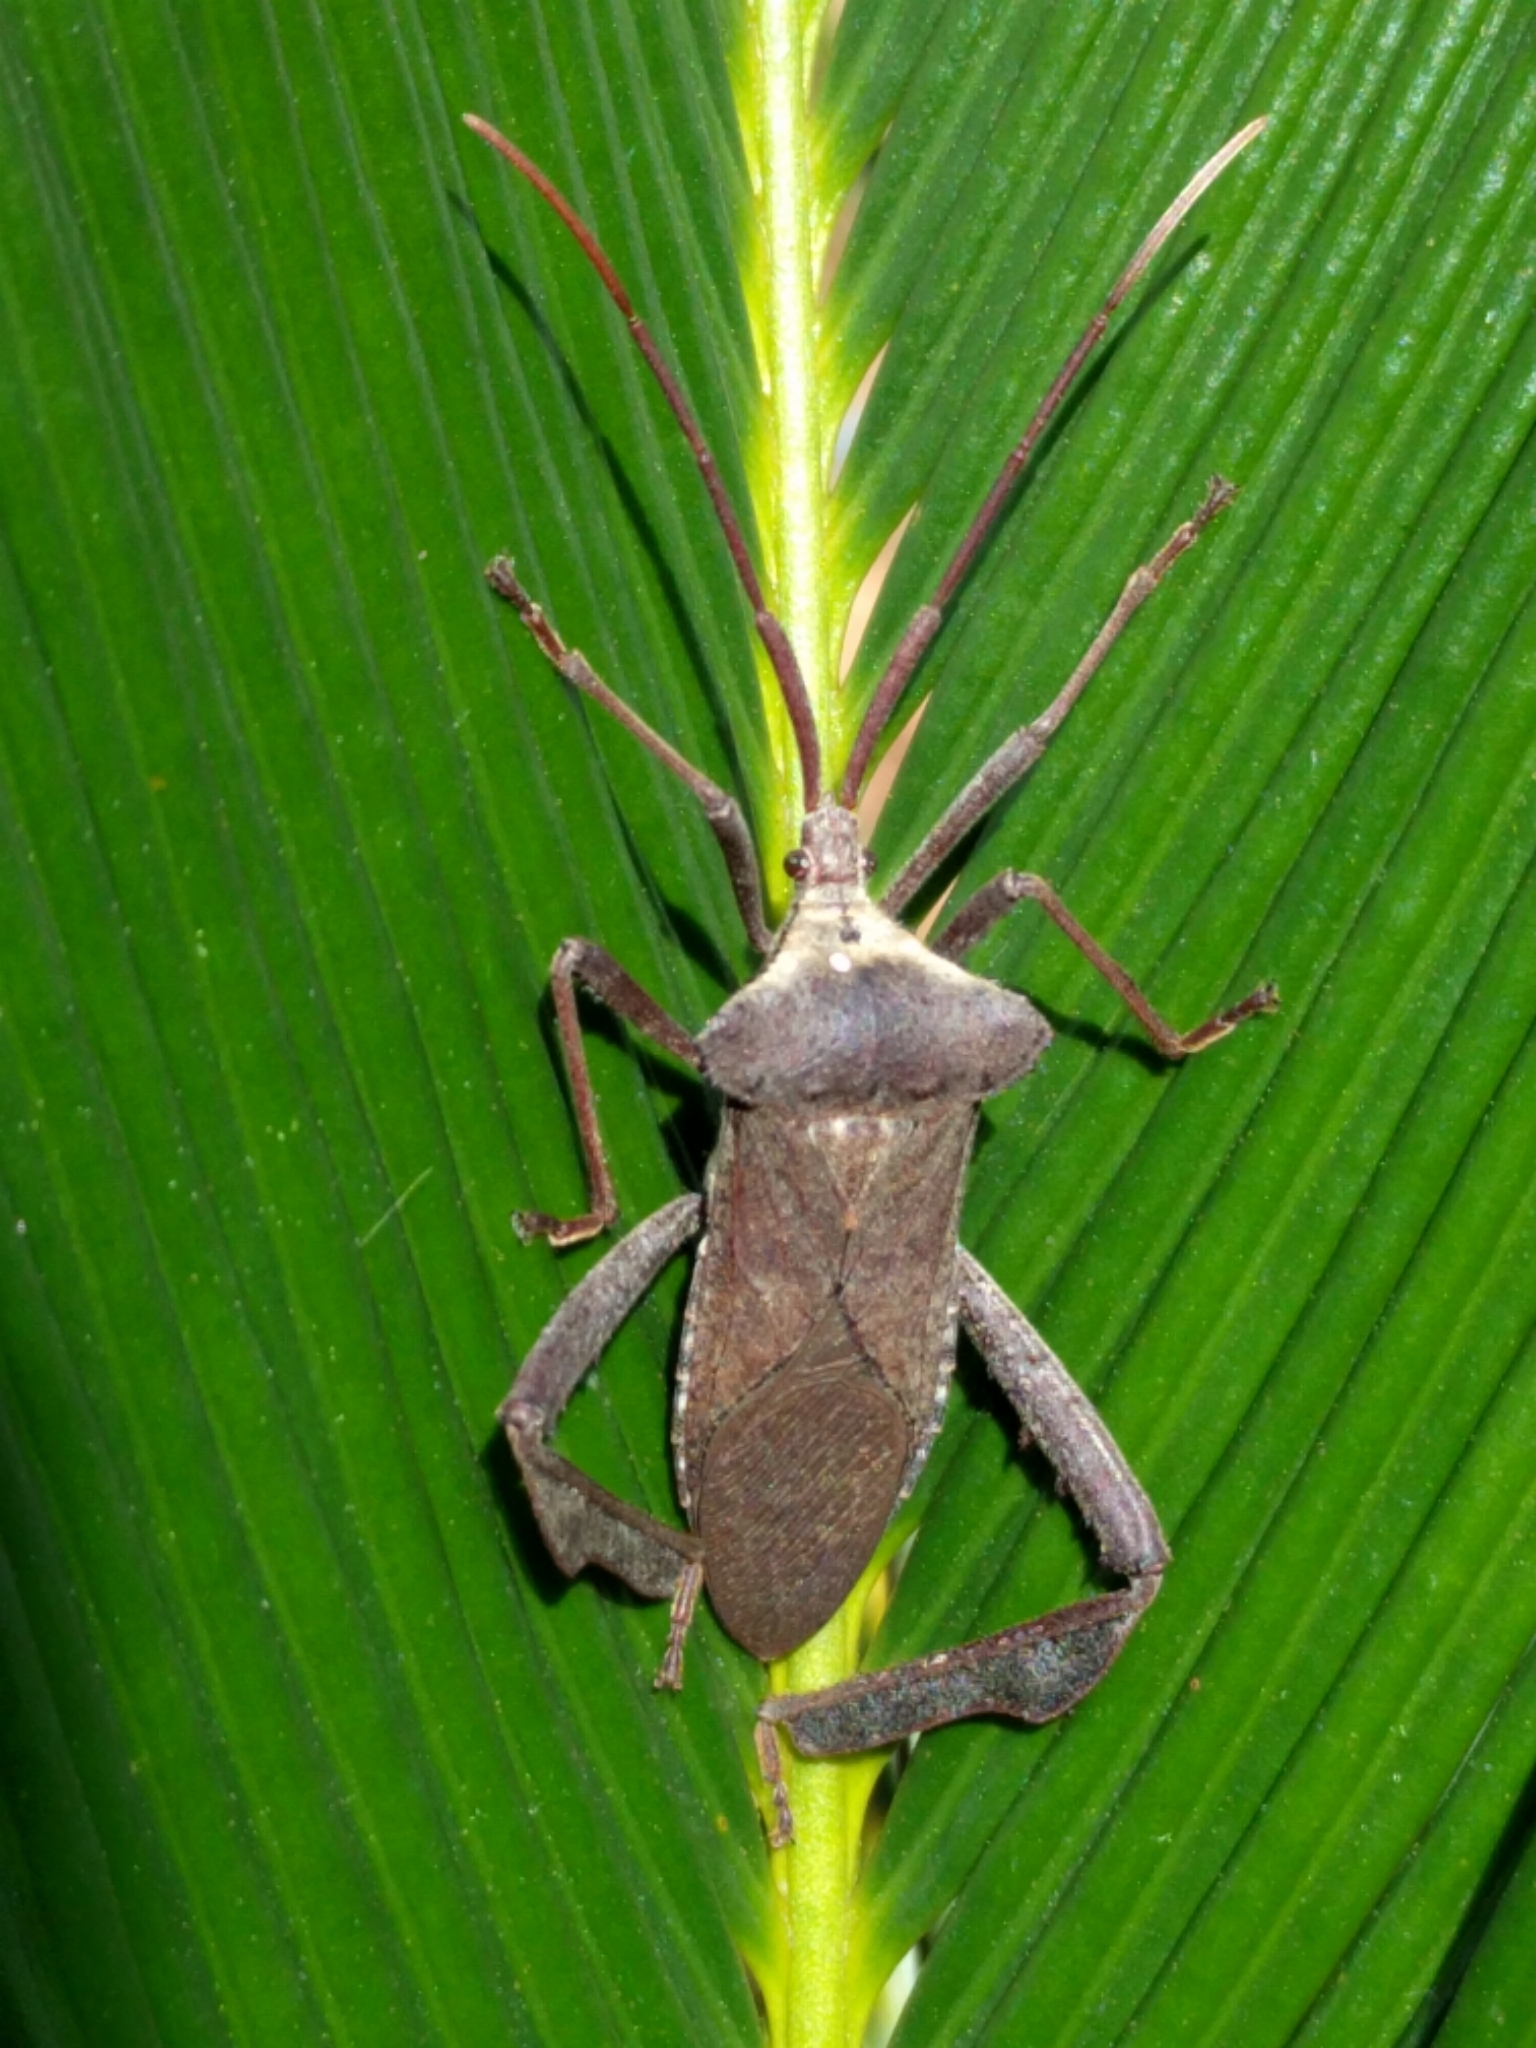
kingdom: Animalia
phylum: Arthropoda
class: Insecta
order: Hemiptera
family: Coreidae
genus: Acanthocephala
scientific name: Acanthocephala declivis
